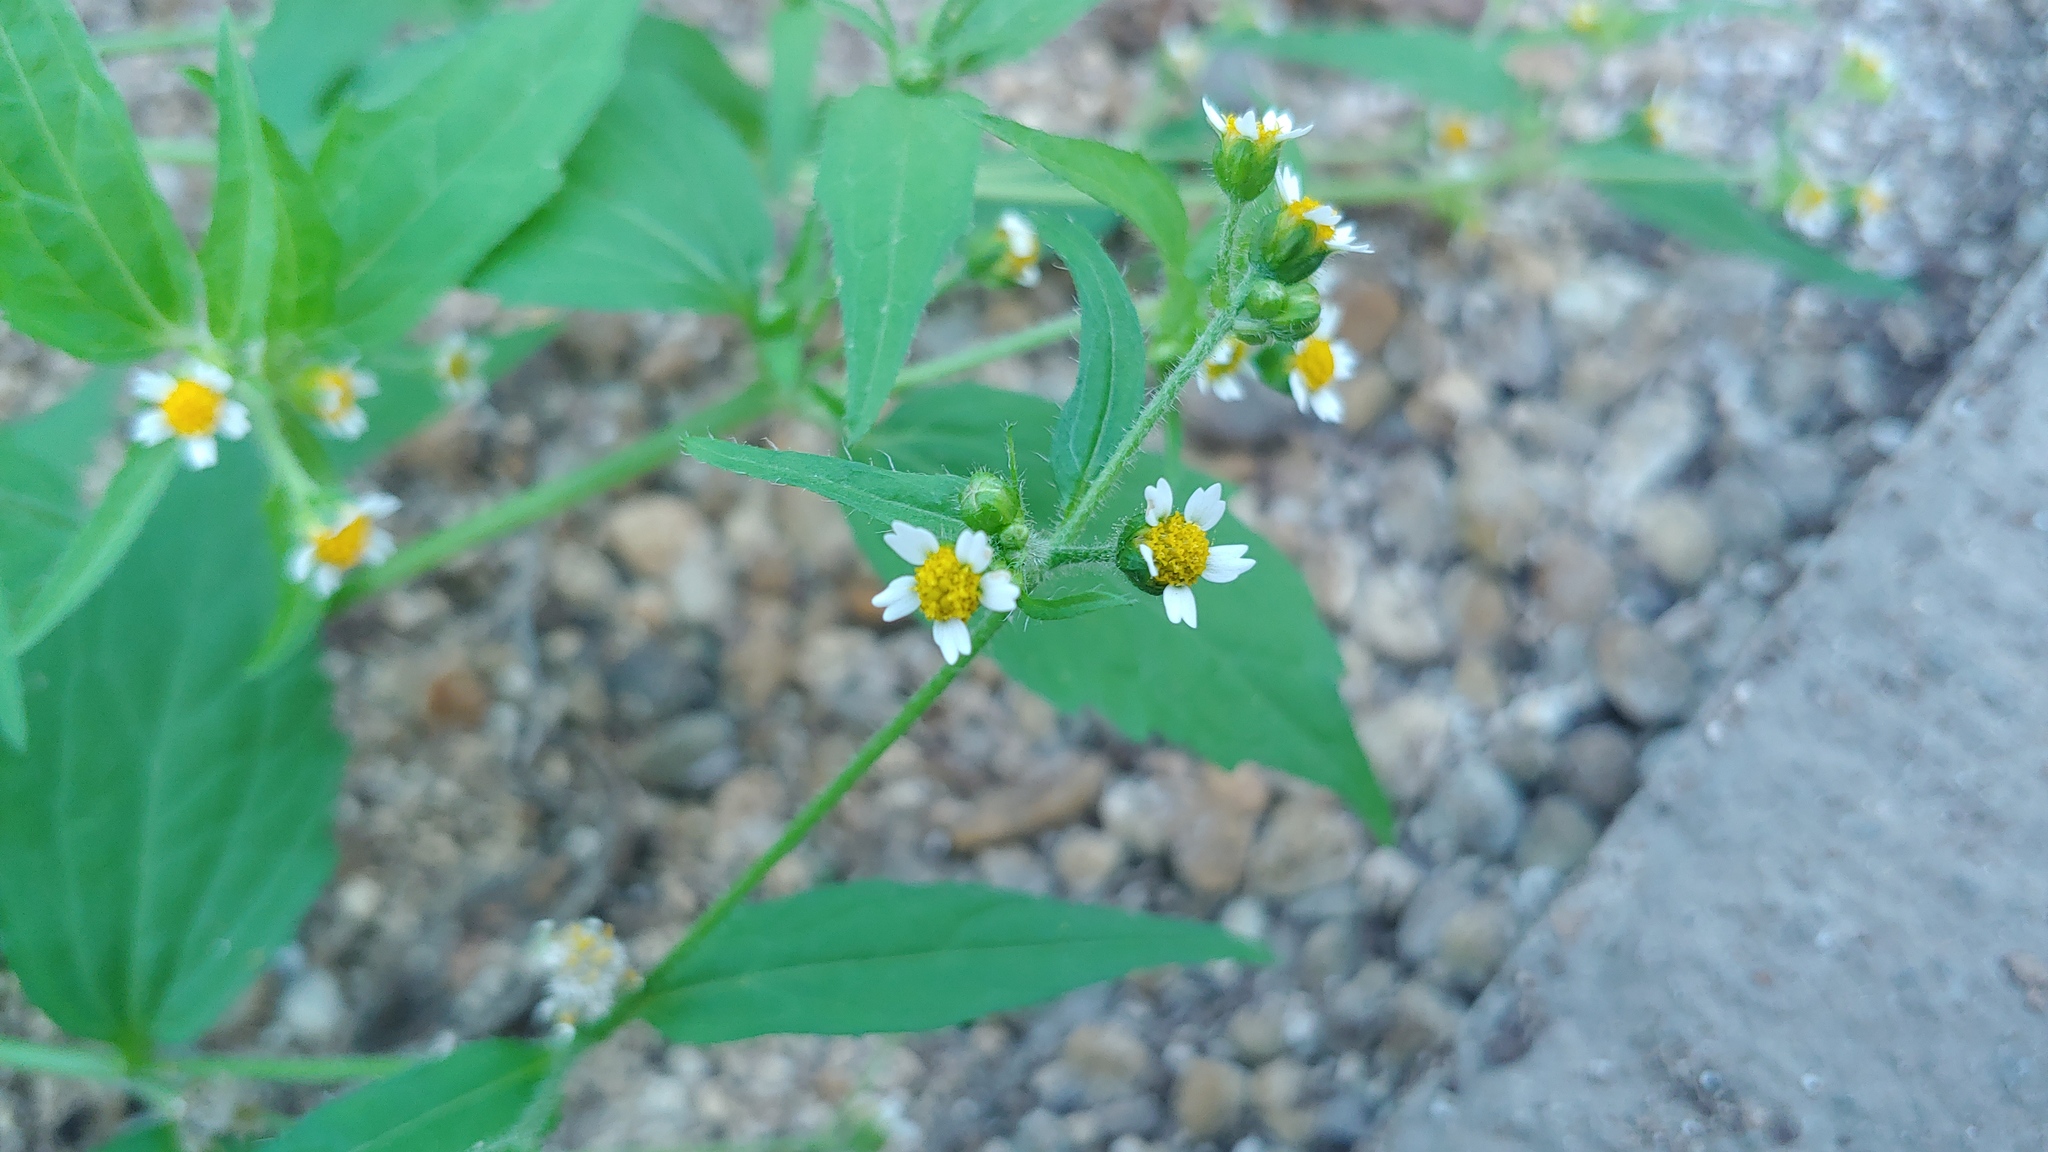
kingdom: Plantae
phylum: Tracheophyta
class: Magnoliopsida
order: Asterales
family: Asteraceae
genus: Galinsoga
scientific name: Galinsoga quadriradiata
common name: Shaggy soldier
